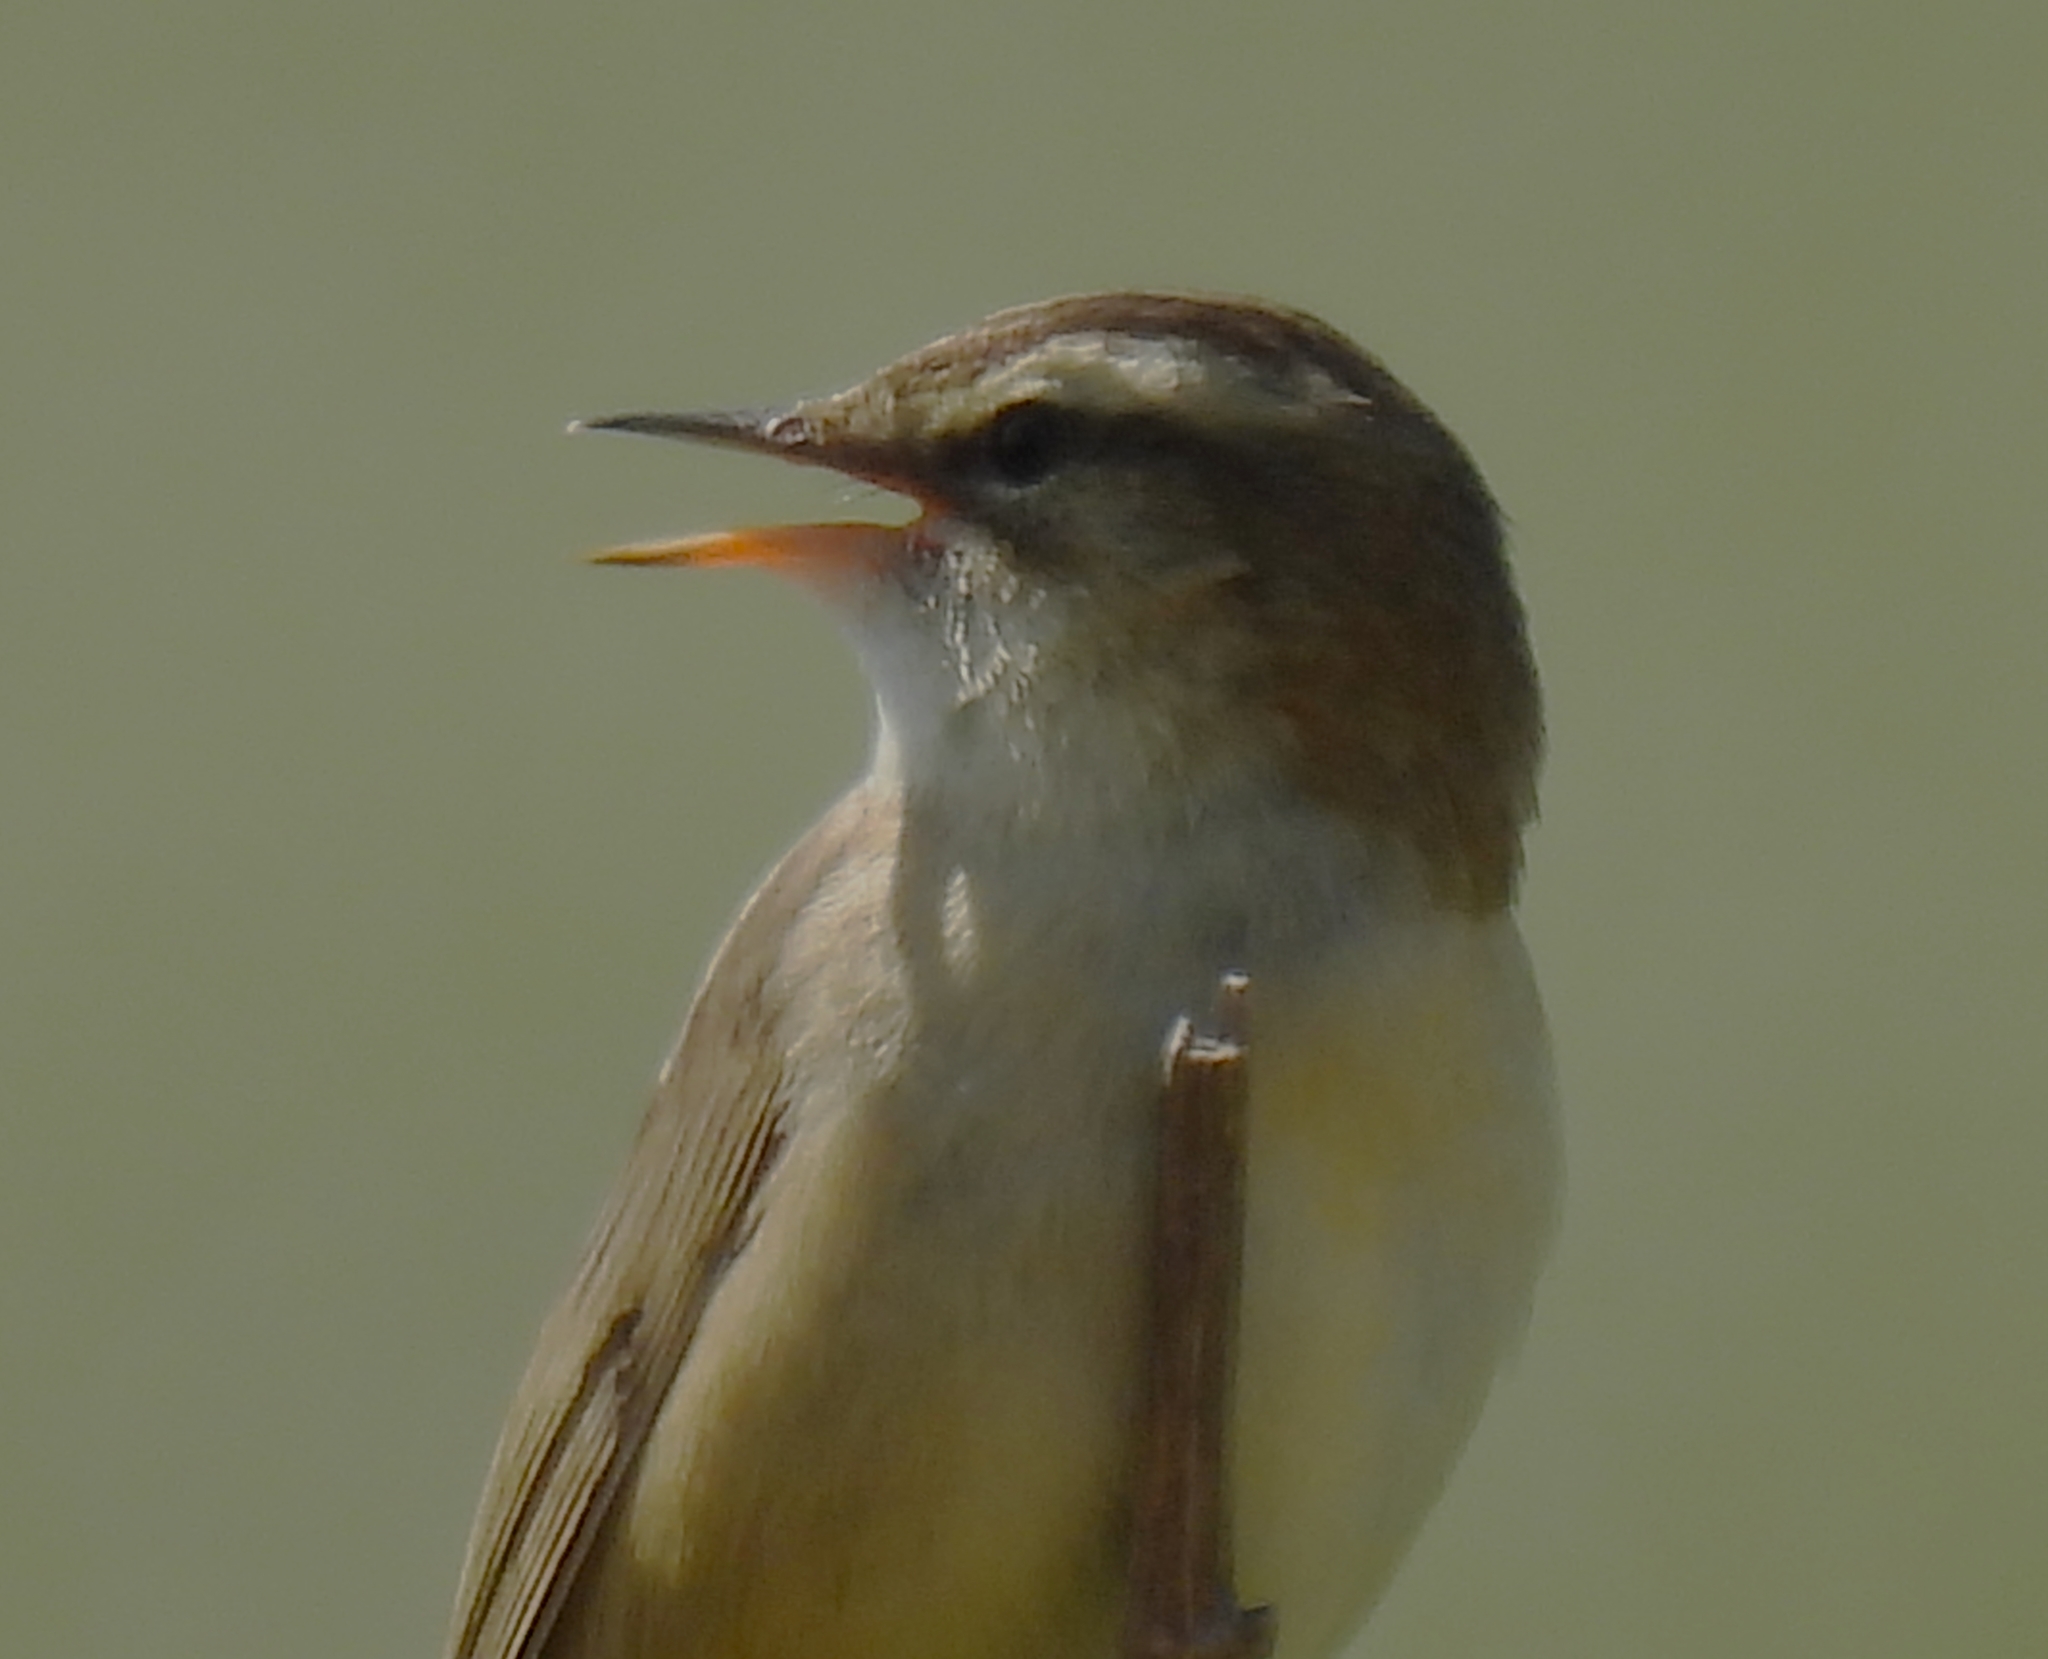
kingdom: Animalia
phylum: Chordata
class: Aves
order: Passeriformes
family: Acrocephalidae
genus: Acrocephalus
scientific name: Acrocephalus schoenobaenus
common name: Sedge warbler
